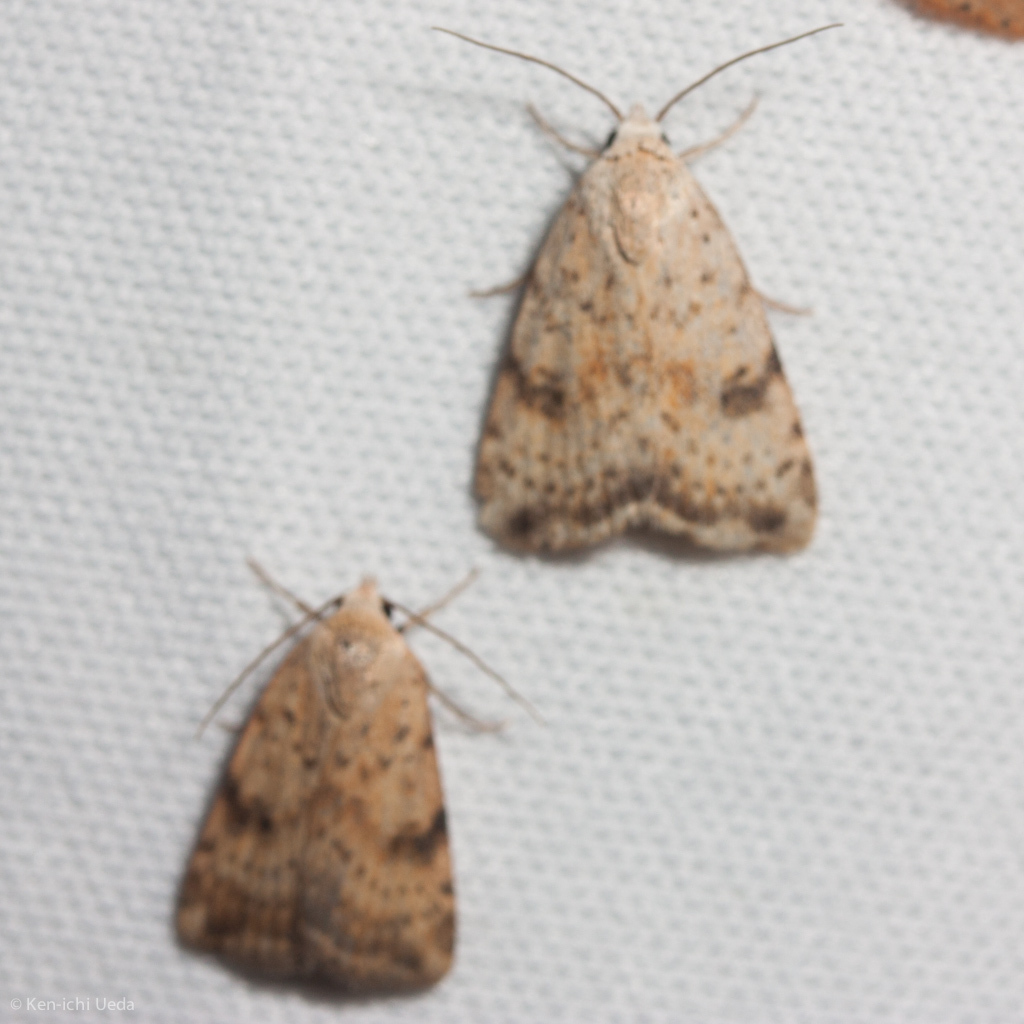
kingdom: Animalia
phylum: Arthropoda
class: Insecta
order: Lepidoptera
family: Noctuidae
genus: Micrathetis
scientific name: Micrathetis triplex
